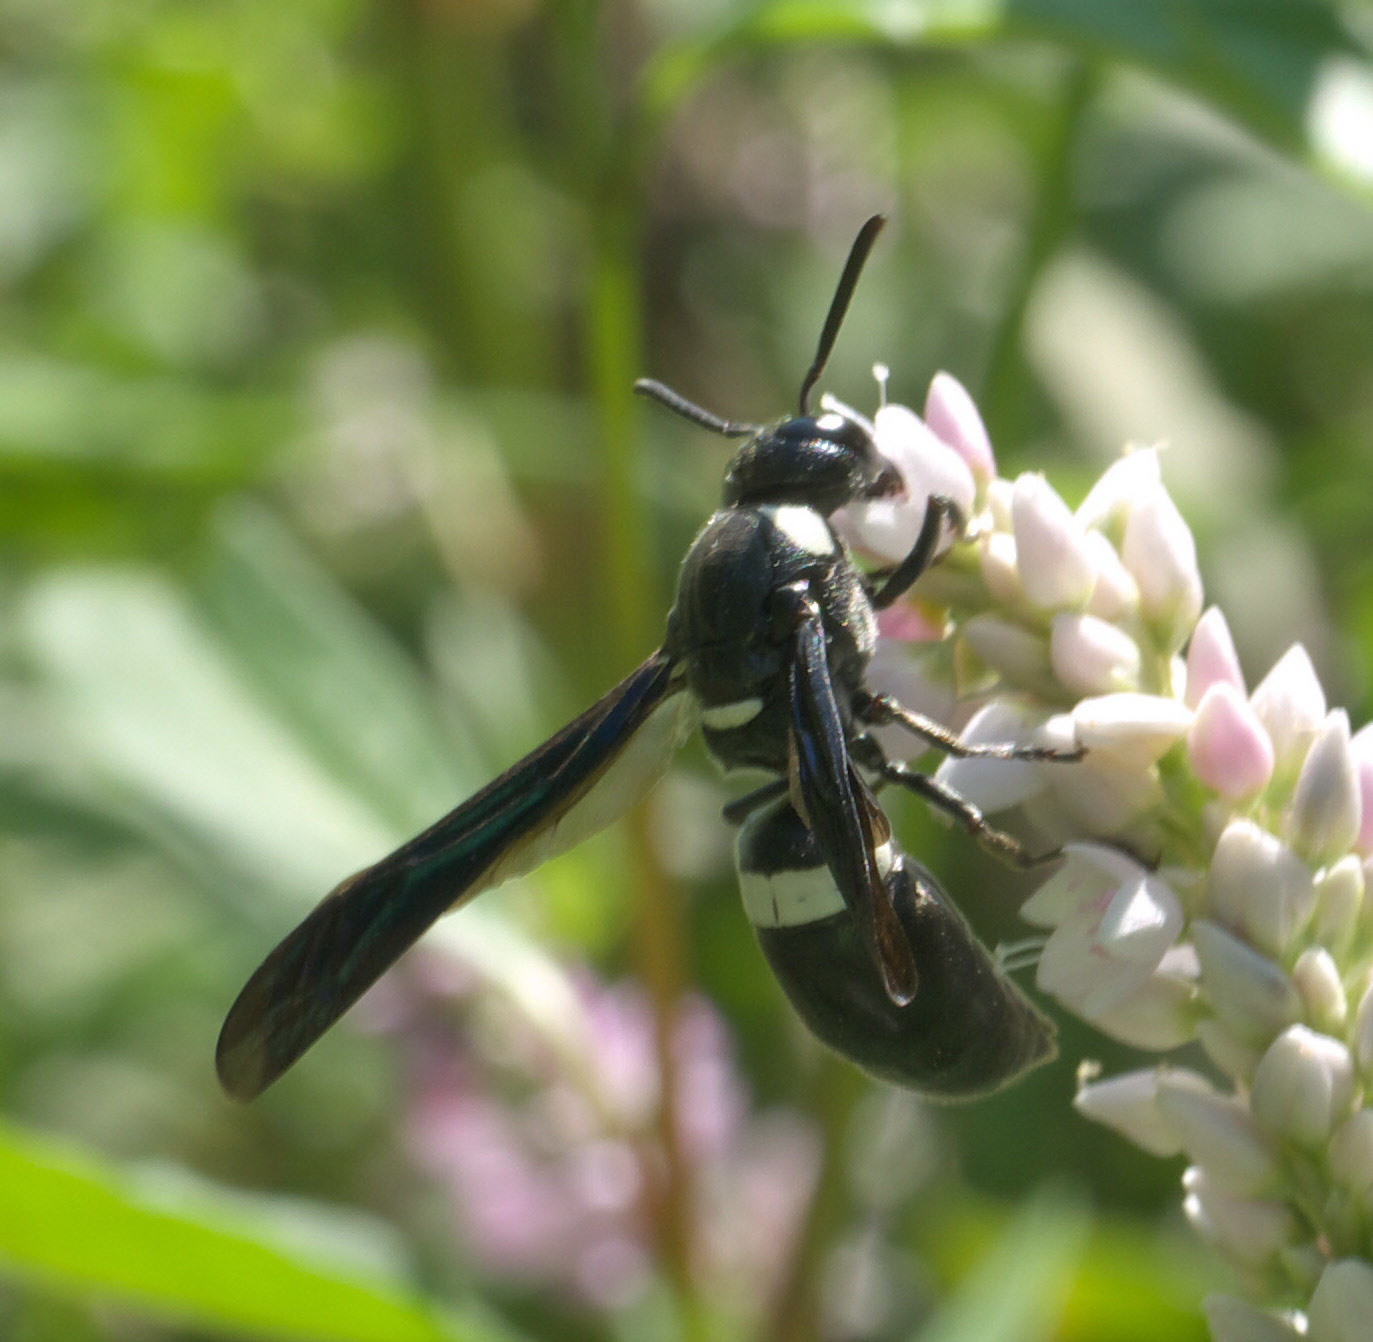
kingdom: Animalia
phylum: Arthropoda
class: Insecta
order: Hymenoptera
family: Eumenidae
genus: Monobia
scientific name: Monobia quadridens
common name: Four-toothed mason wasp
